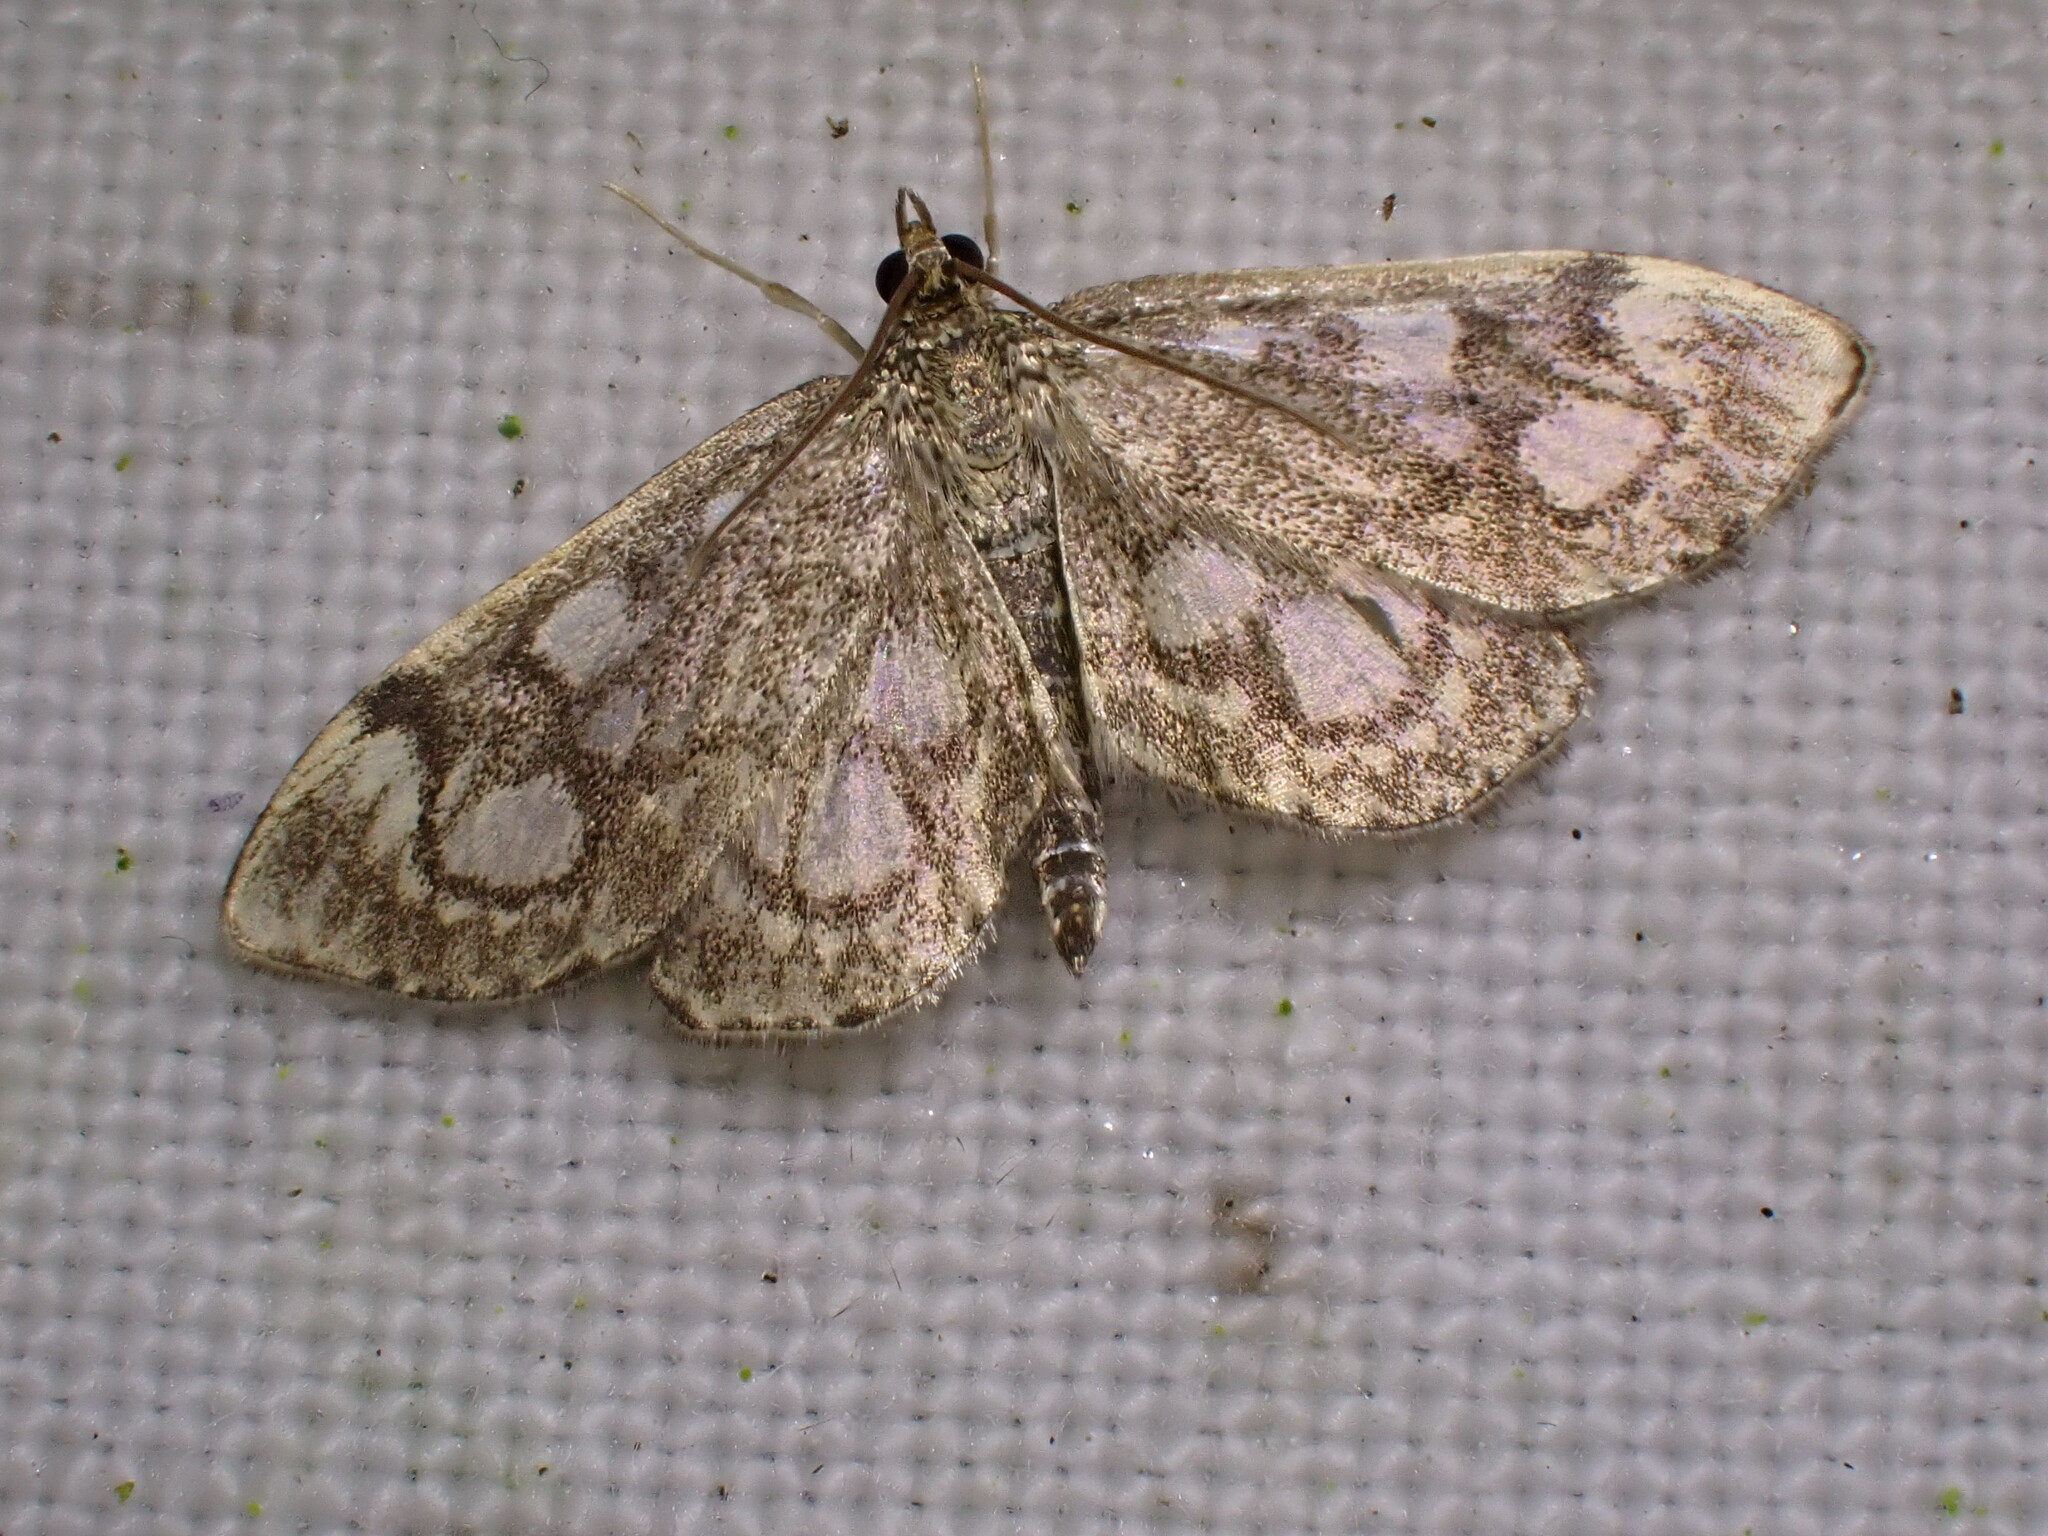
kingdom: Animalia
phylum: Arthropoda
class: Insecta
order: Lepidoptera
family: Crambidae
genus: Anania
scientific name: Anania coronata
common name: Elder pearl
